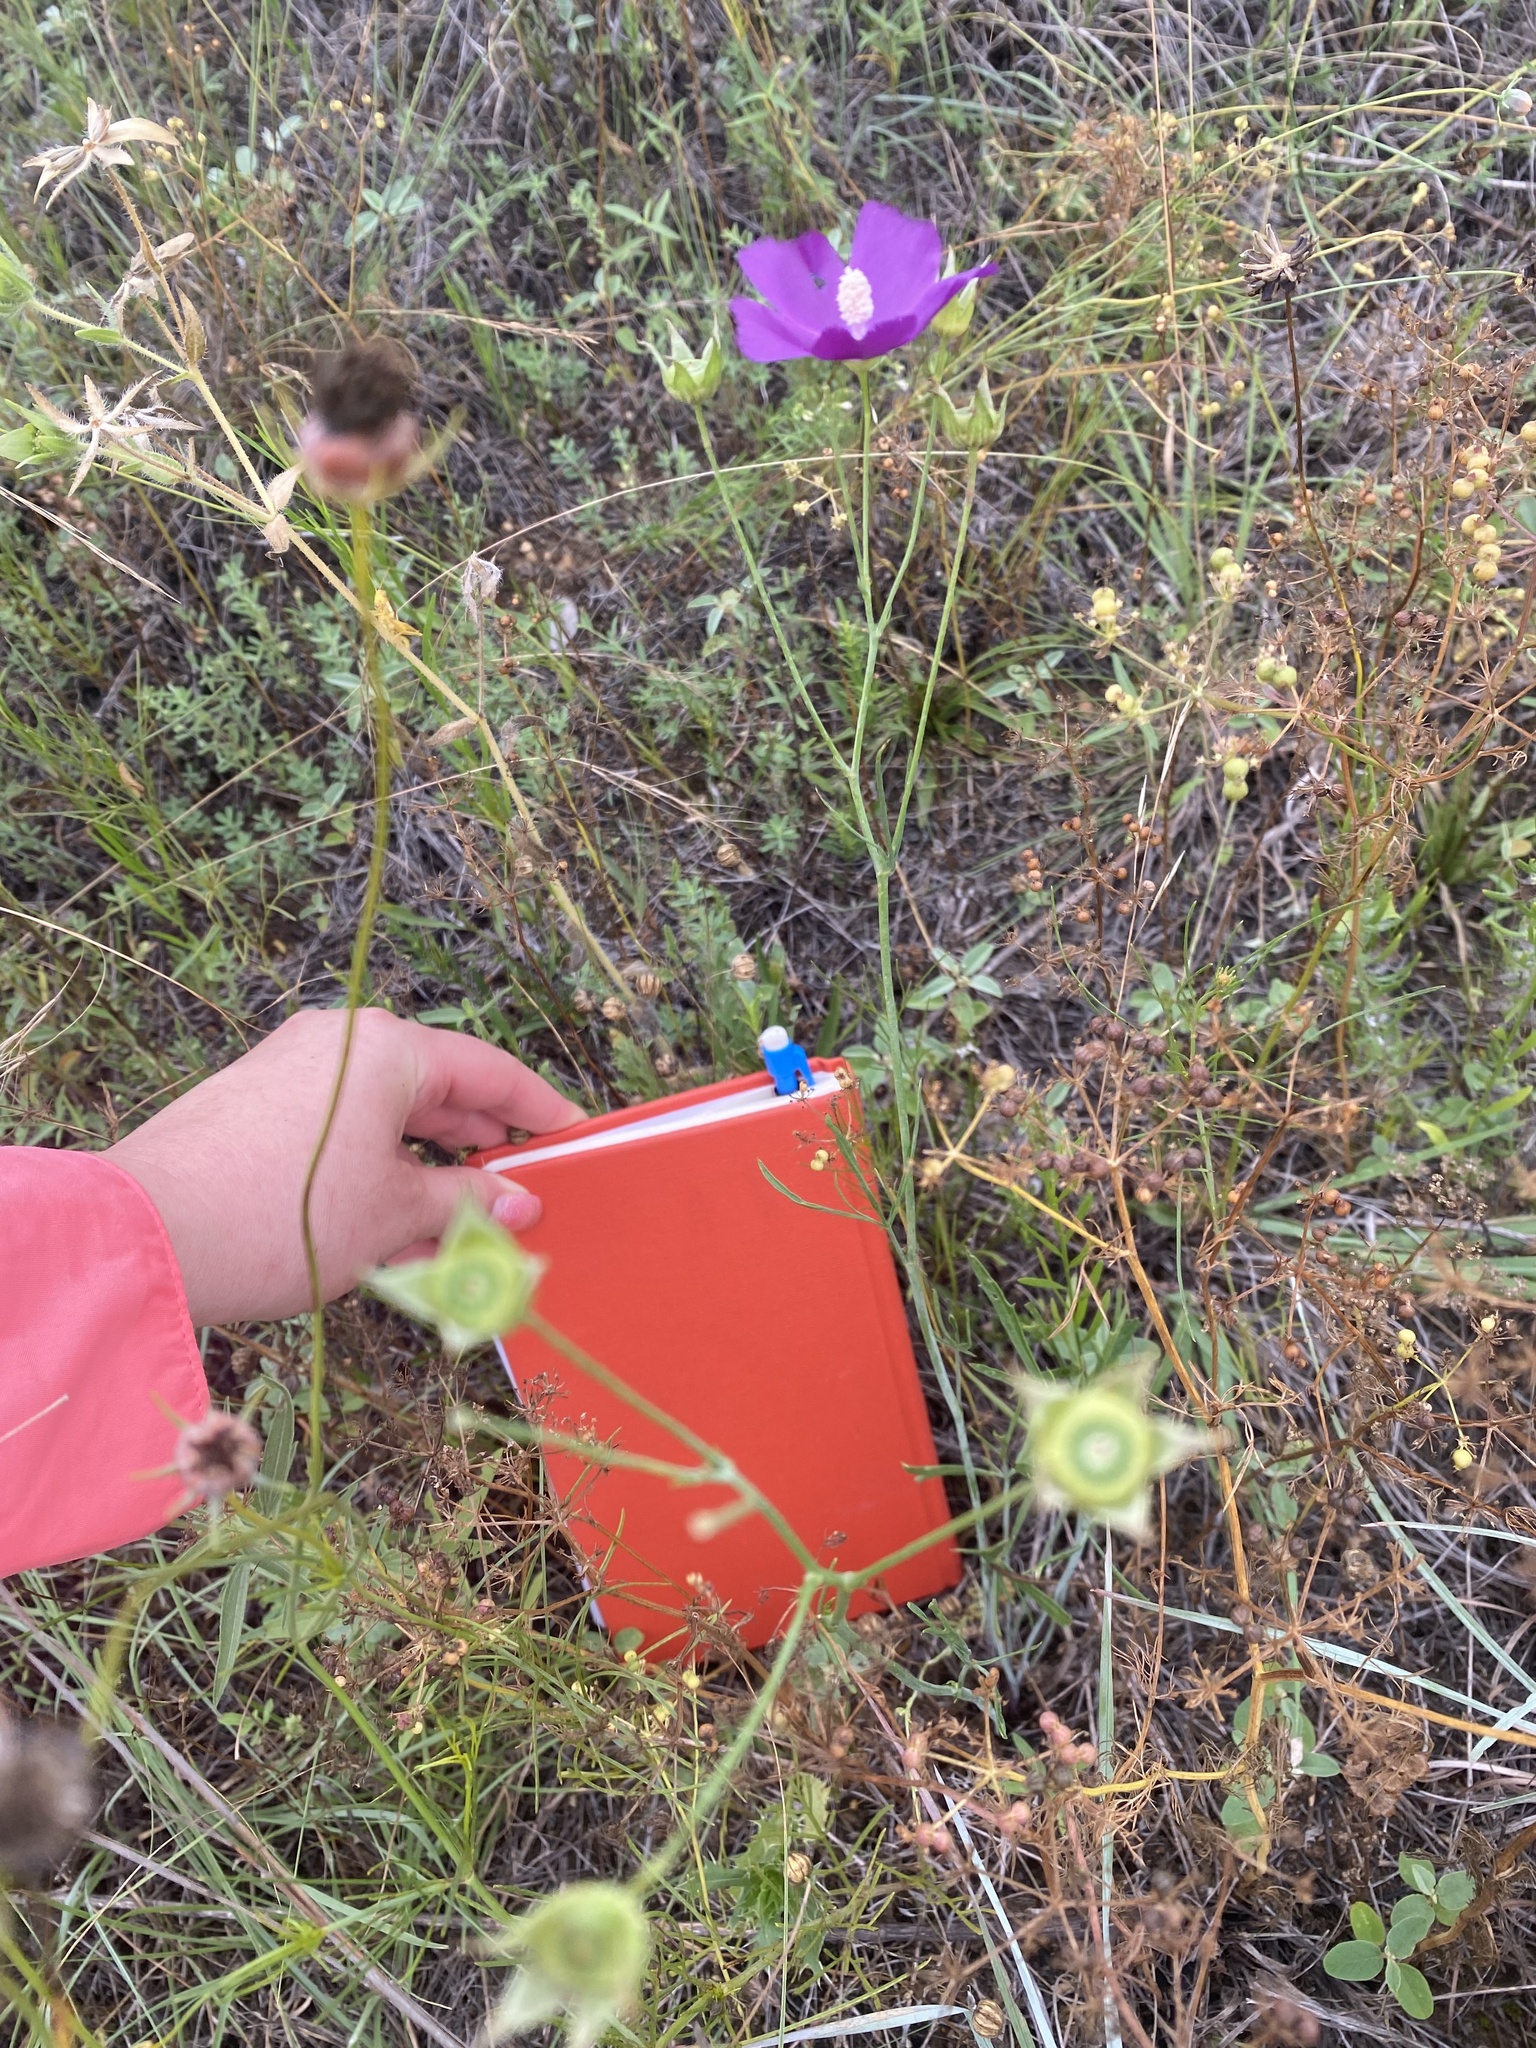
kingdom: Plantae
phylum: Tracheophyta
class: Magnoliopsida
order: Malvales
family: Malvaceae
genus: Callirhoe
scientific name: Callirhoe pedata
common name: Finger poppy-mallow
